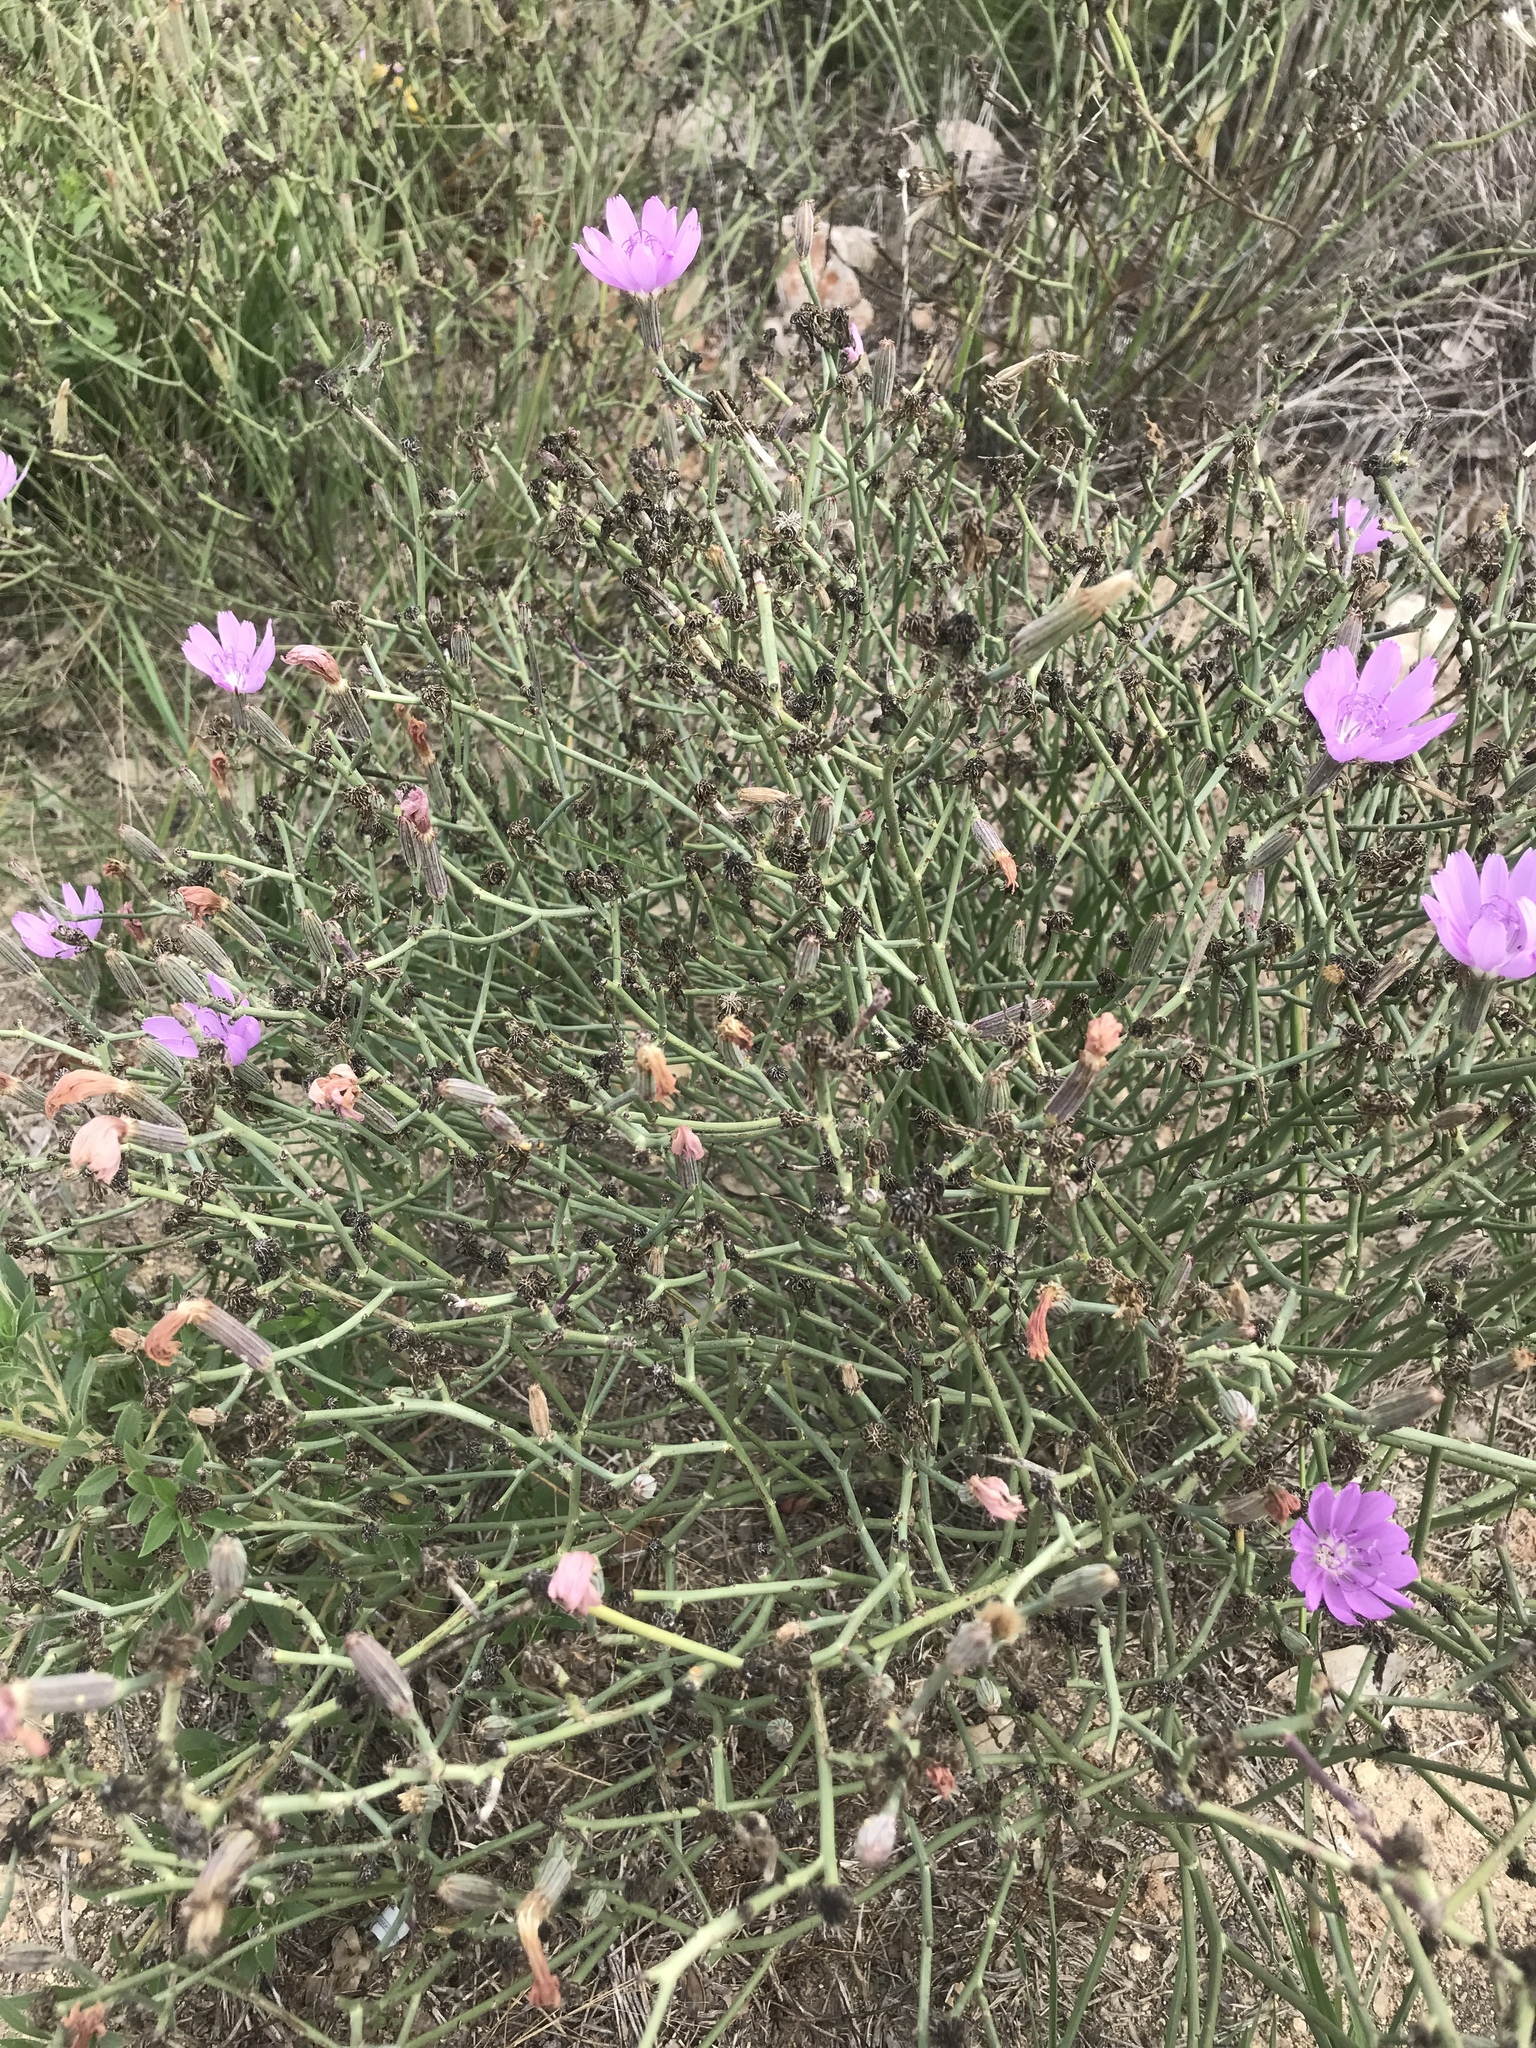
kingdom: Plantae
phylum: Tracheophyta
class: Magnoliopsida
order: Asterales
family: Asteraceae
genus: Lygodesmia
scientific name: Lygodesmia texana
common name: Texas skeleton-plant
